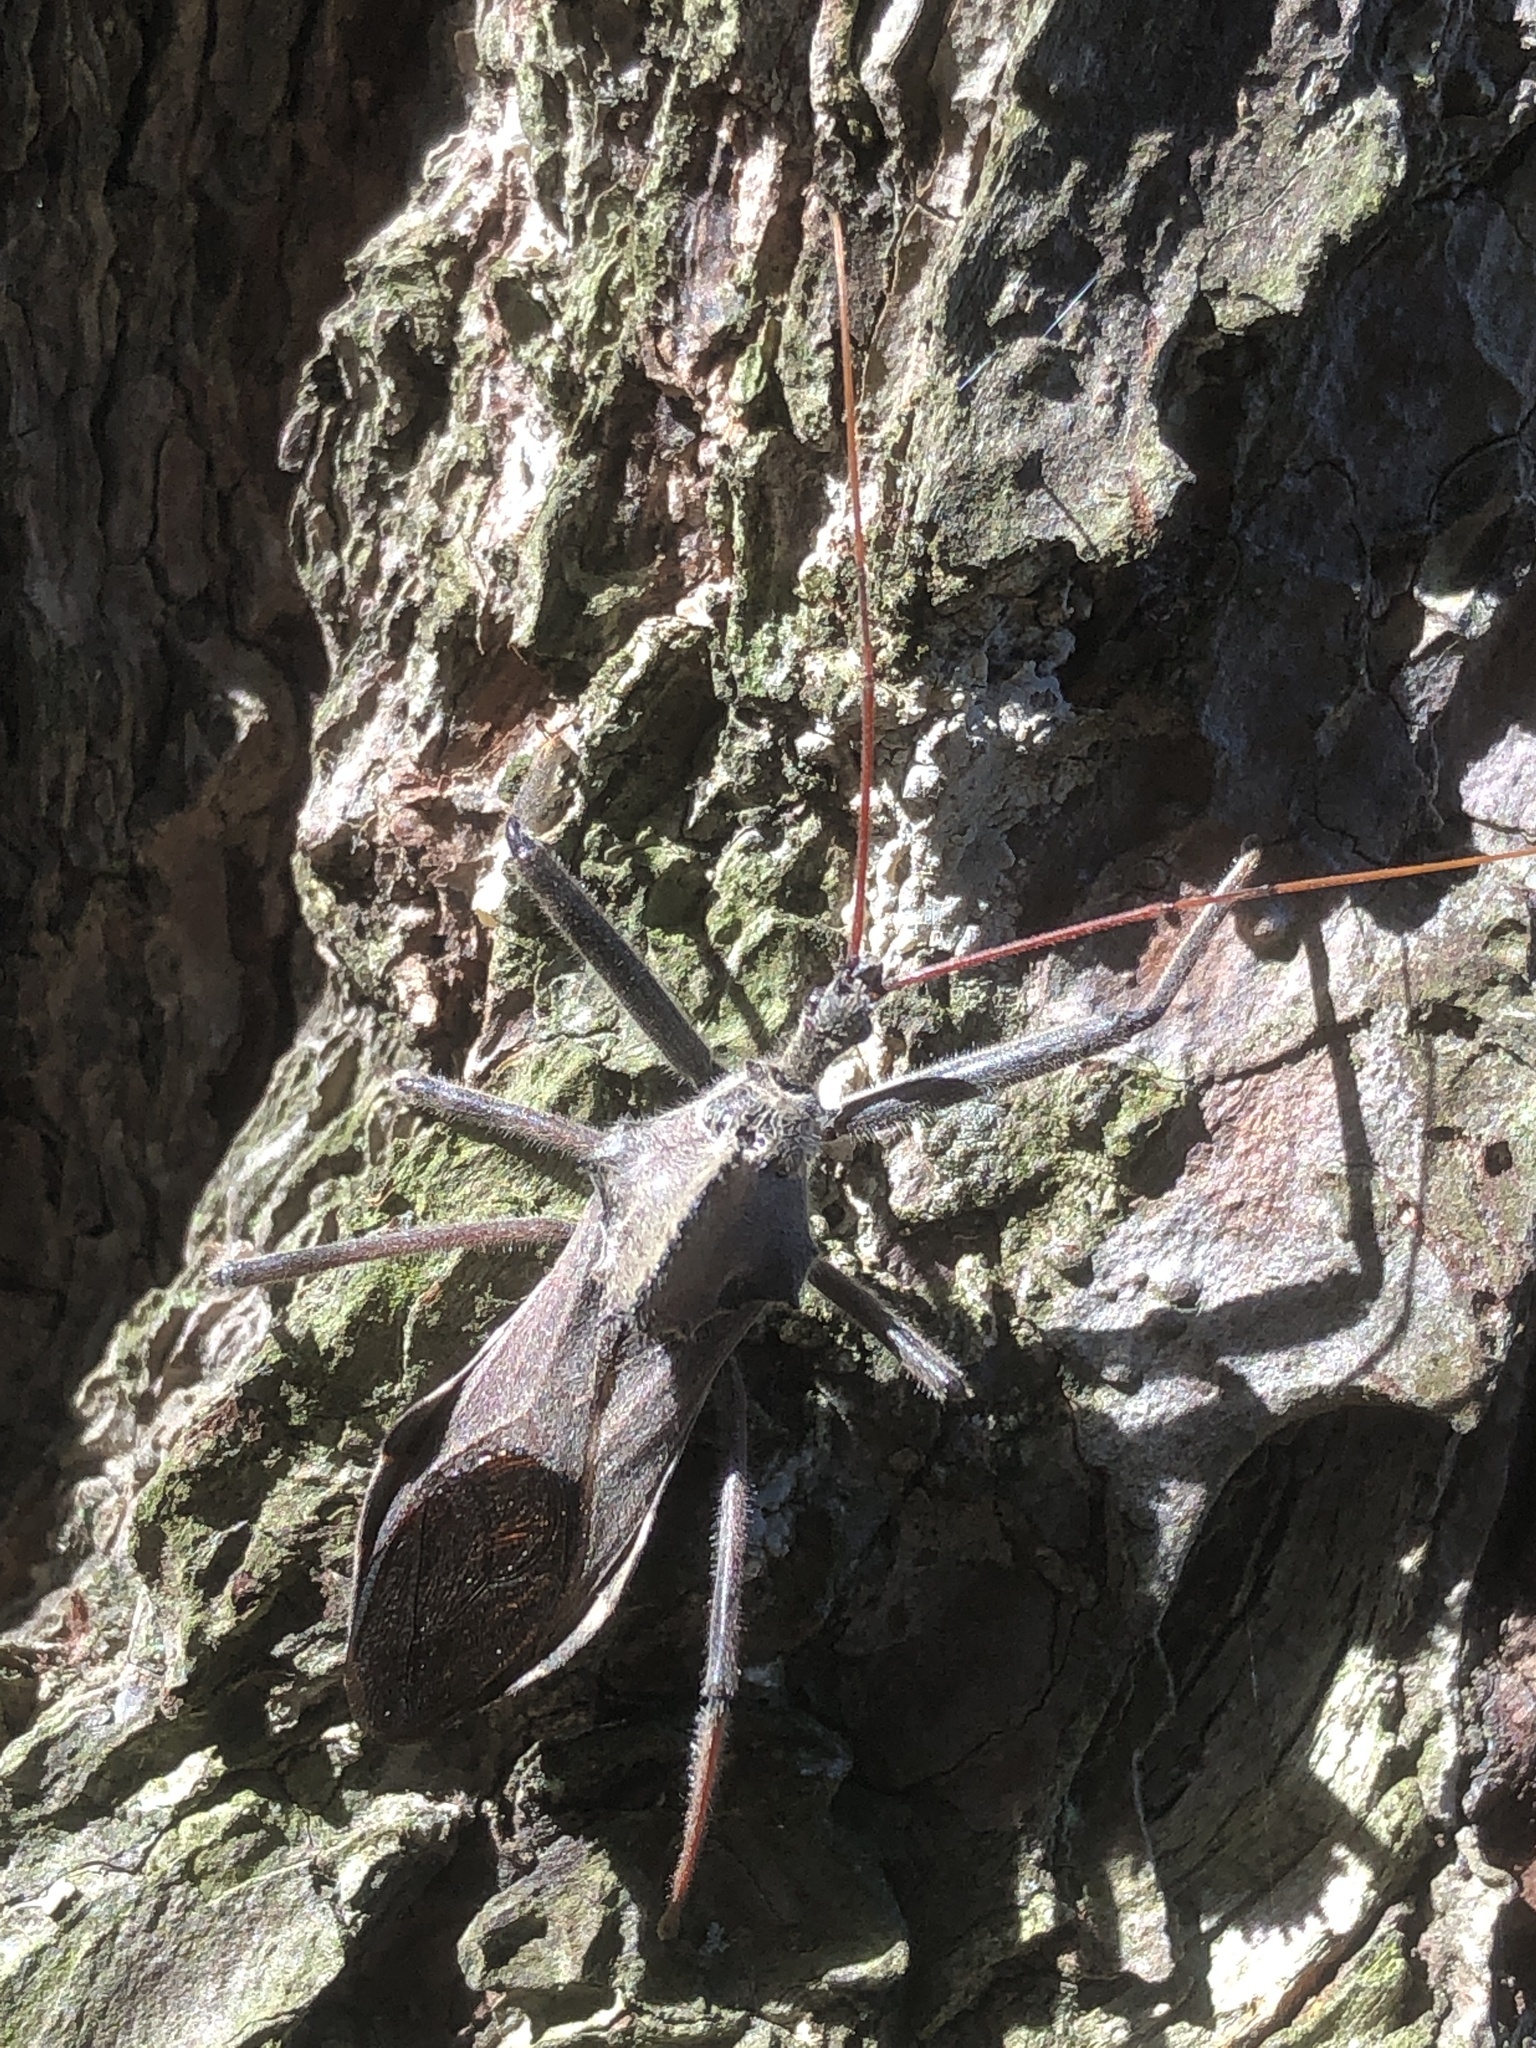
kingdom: Animalia
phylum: Arthropoda
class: Insecta
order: Hemiptera
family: Reduviidae
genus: Arilus
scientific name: Arilus cristatus
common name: North american wheel bug
